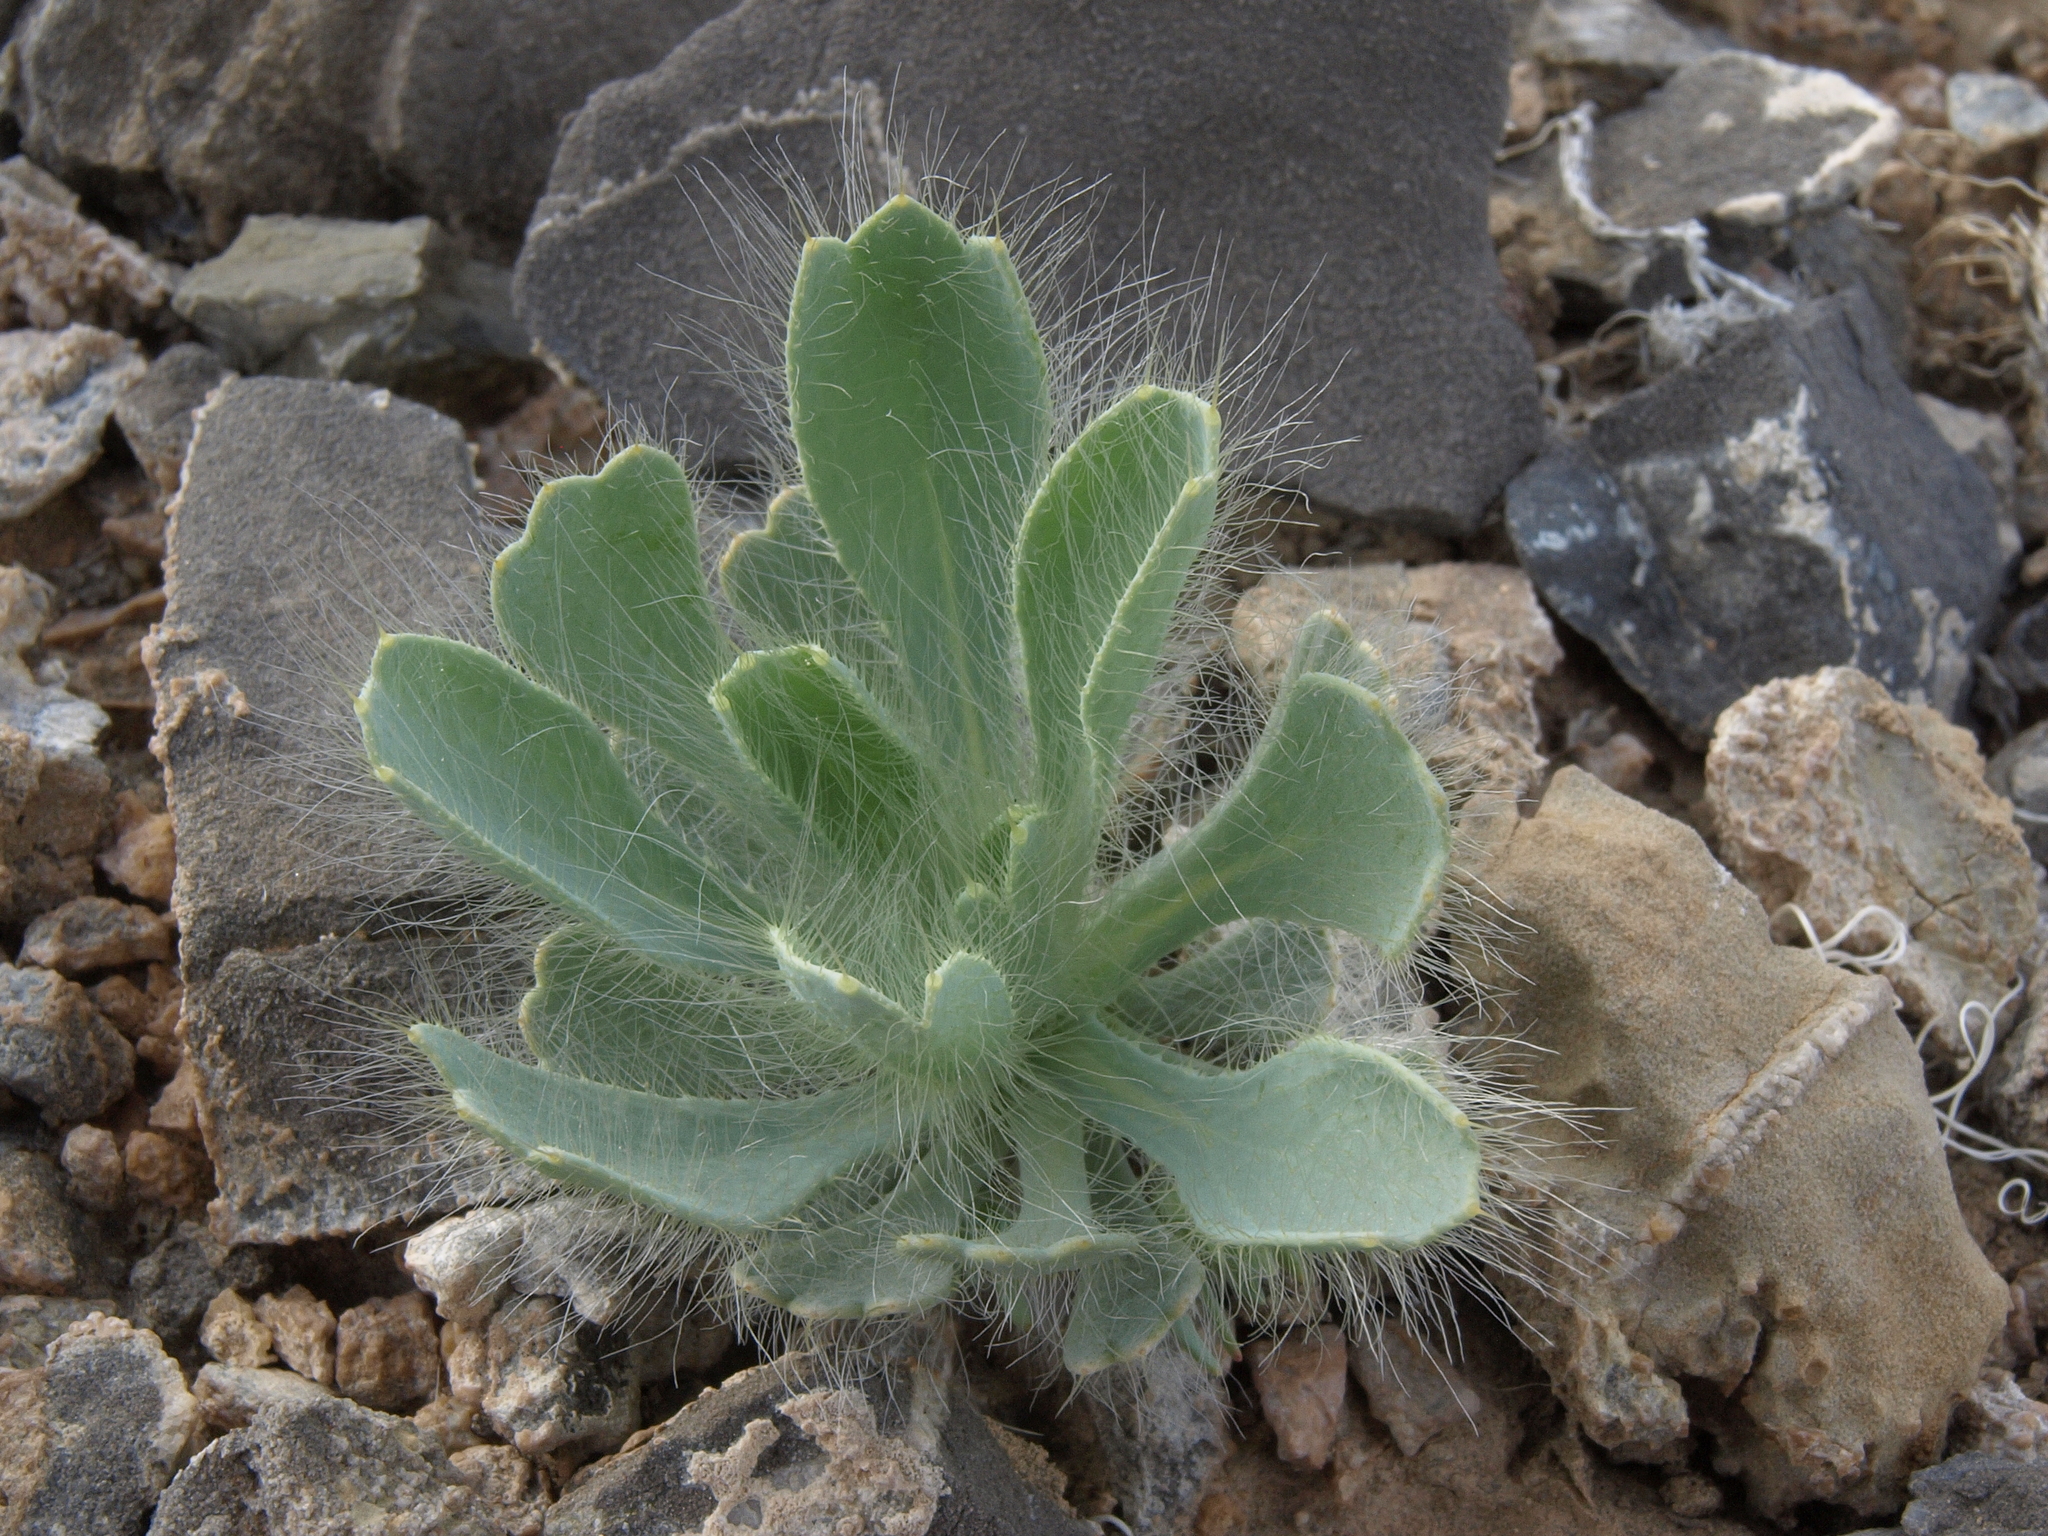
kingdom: Plantae
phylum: Tracheophyta
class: Magnoliopsida
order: Ranunculales
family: Papaveraceae
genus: Arctomecon
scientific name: Arctomecon merriamii
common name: White bear-poppy
